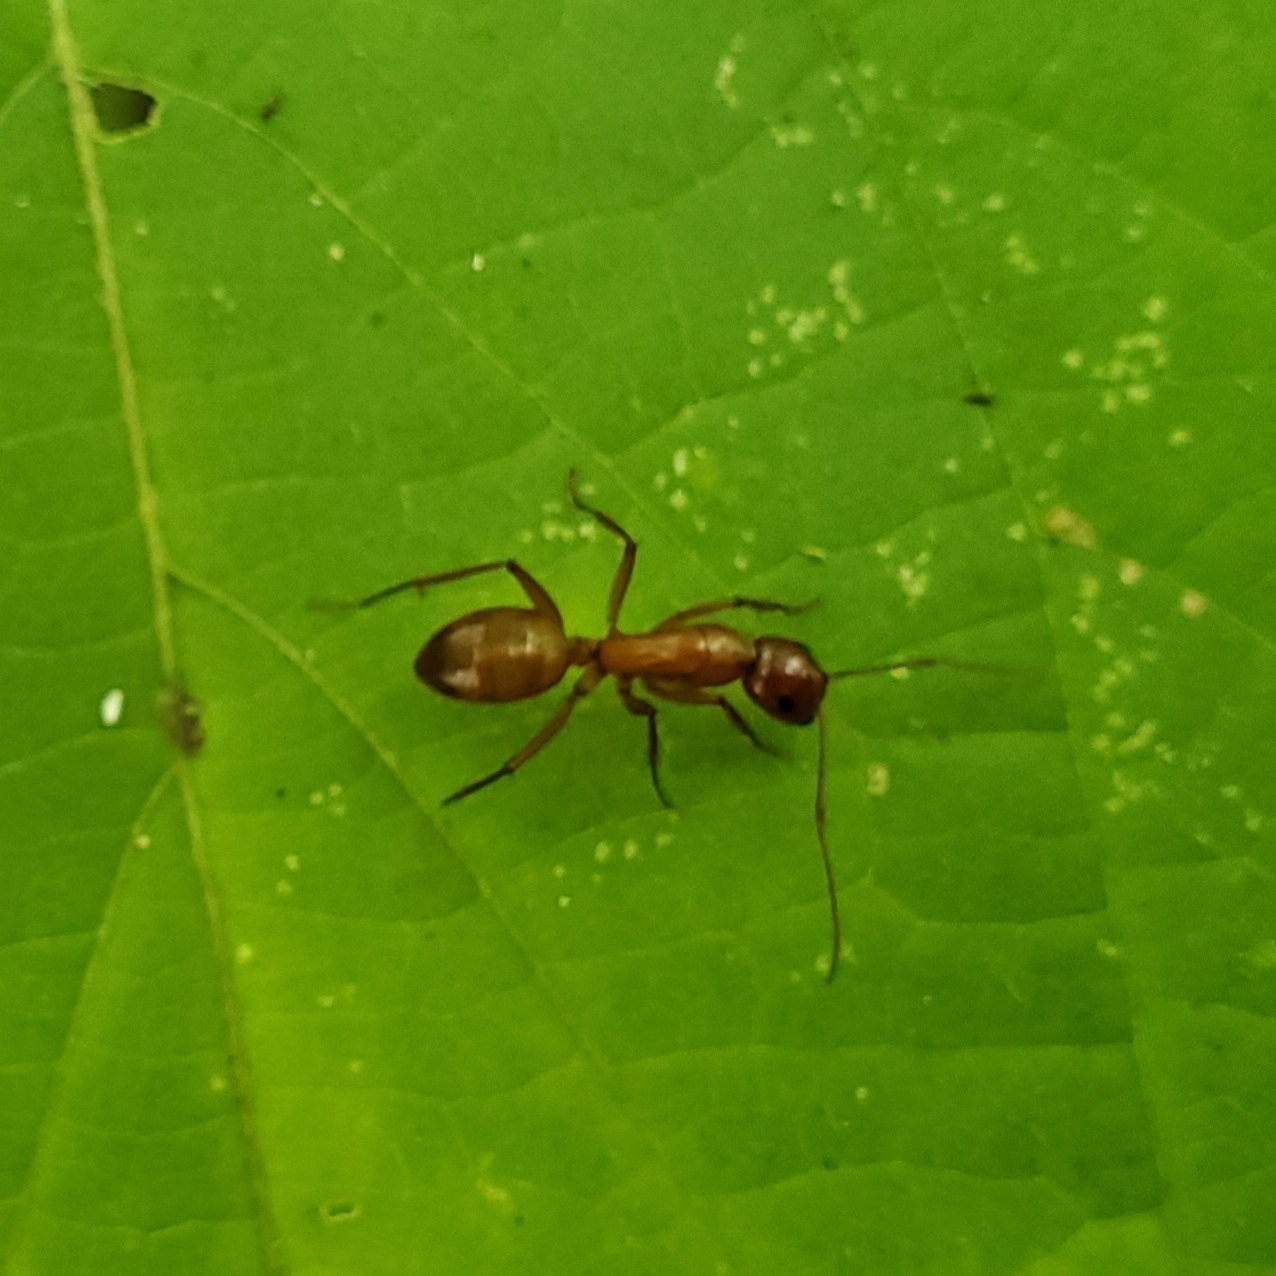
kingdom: Animalia
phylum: Arthropoda
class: Insecta
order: Hymenoptera
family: Formicidae
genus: Camponotus
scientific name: Camponotus castaneus
